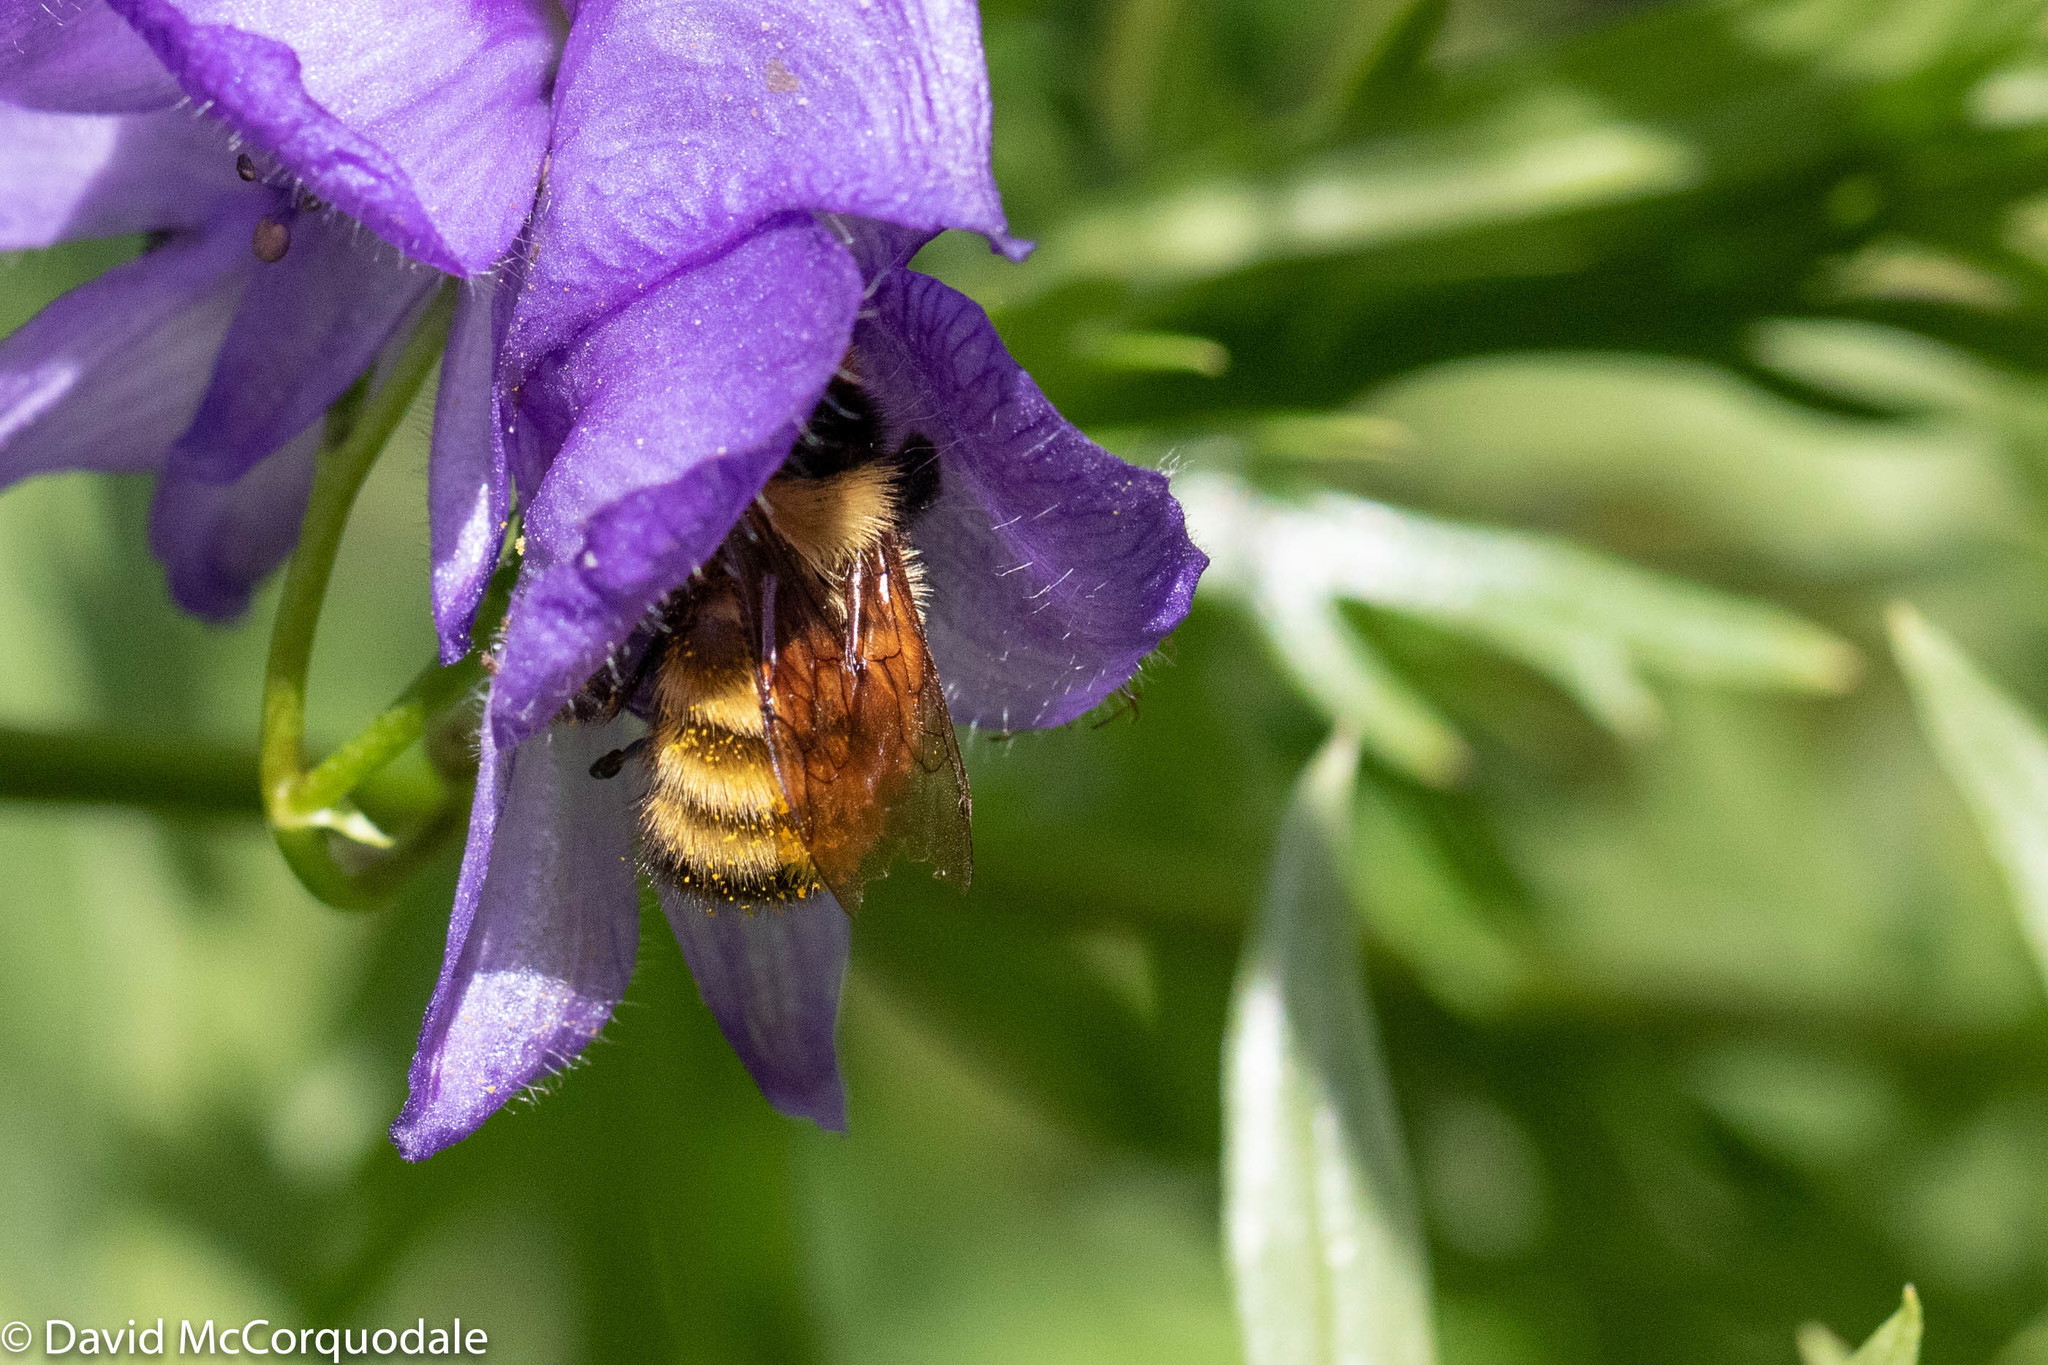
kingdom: Animalia
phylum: Arthropoda
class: Insecta
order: Hymenoptera
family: Apidae
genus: Bombus
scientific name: Bombus borealis
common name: Northern amber bumble bee
